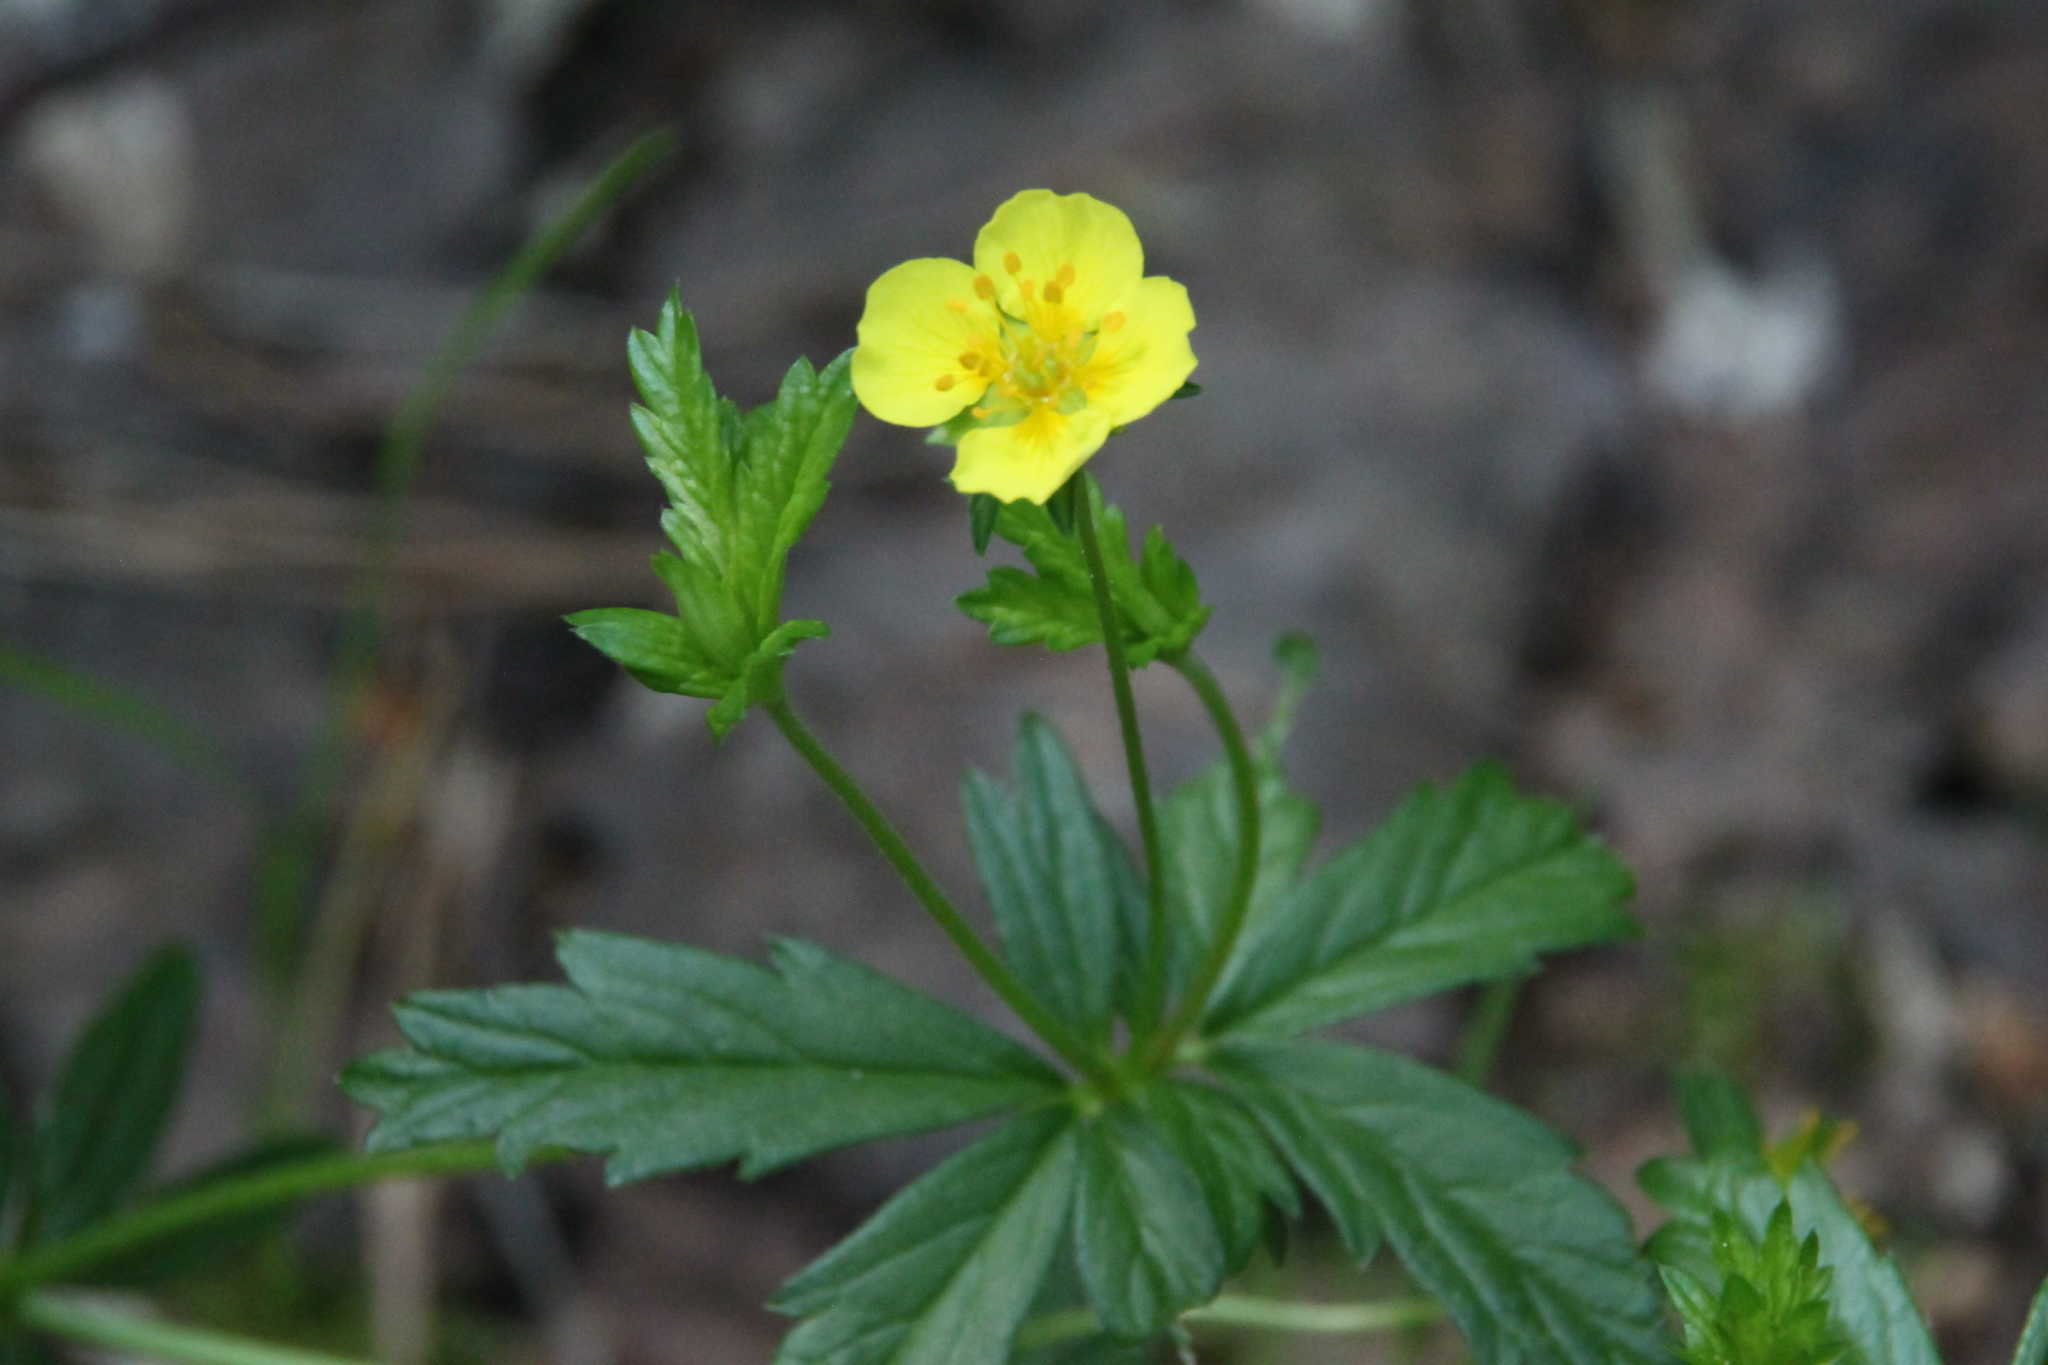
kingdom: Plantae
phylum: Tracheophyta
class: Magnoliopsida
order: Rosales
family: Rosaceae
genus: Potentilla
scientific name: Potentilla erecta
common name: Tormentil
